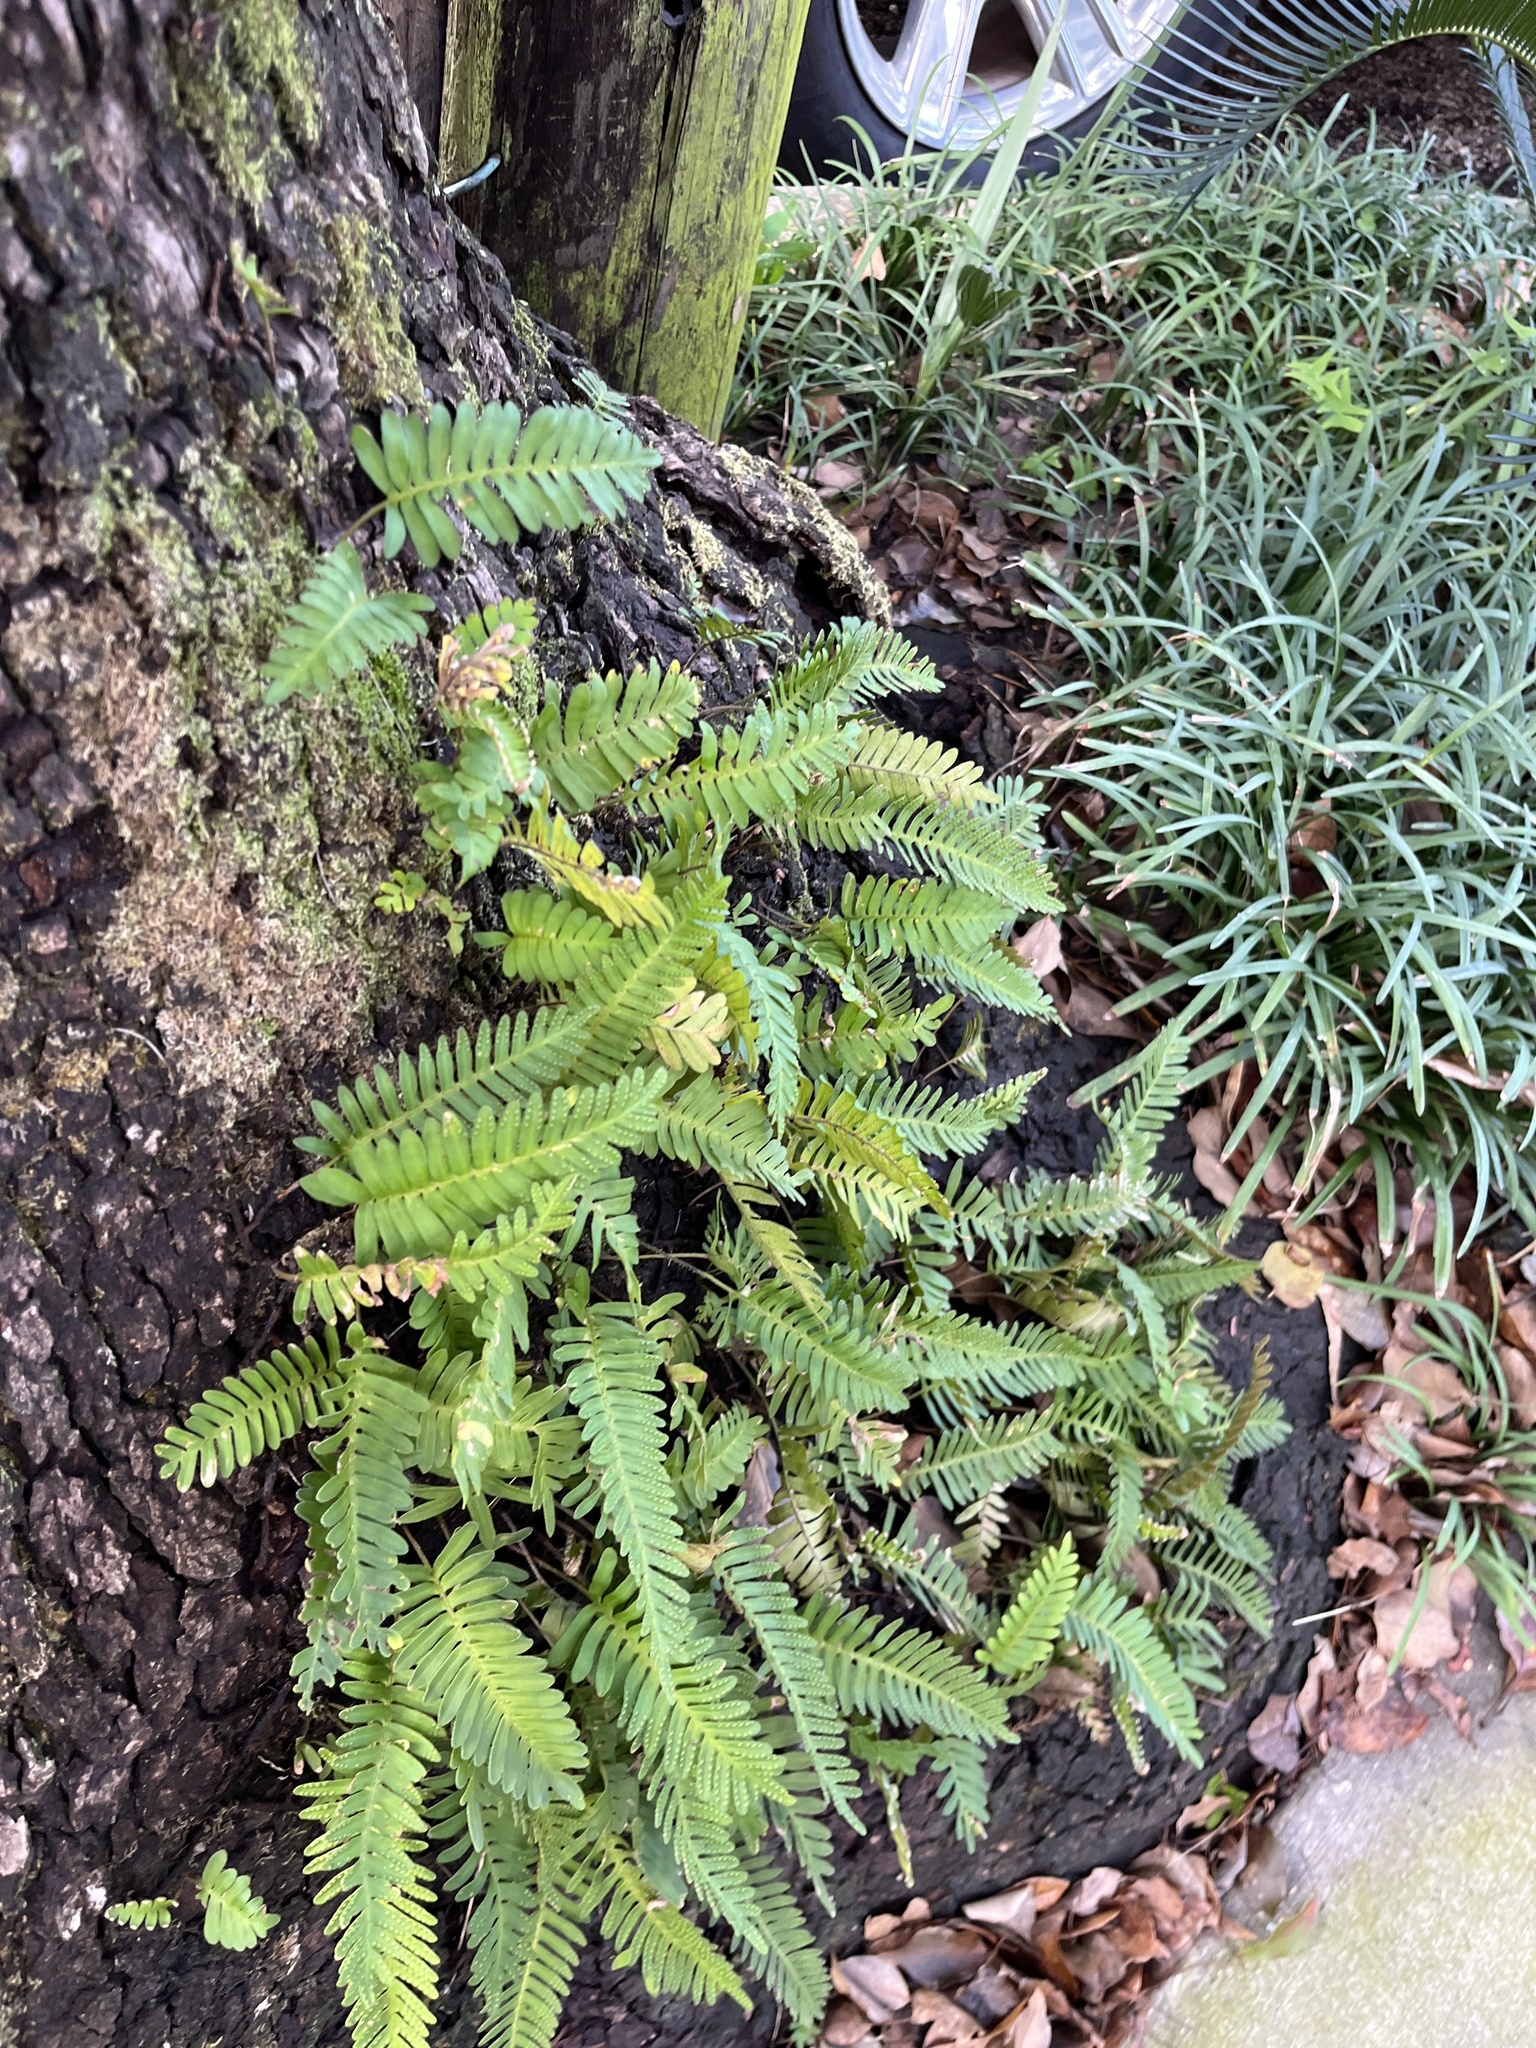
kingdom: Plantae
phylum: Tracheophyta
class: Polypodiopsida
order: Polypodiales
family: Polypodiaceae
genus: Pleopeltis
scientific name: Pleopeltis michauxiana
